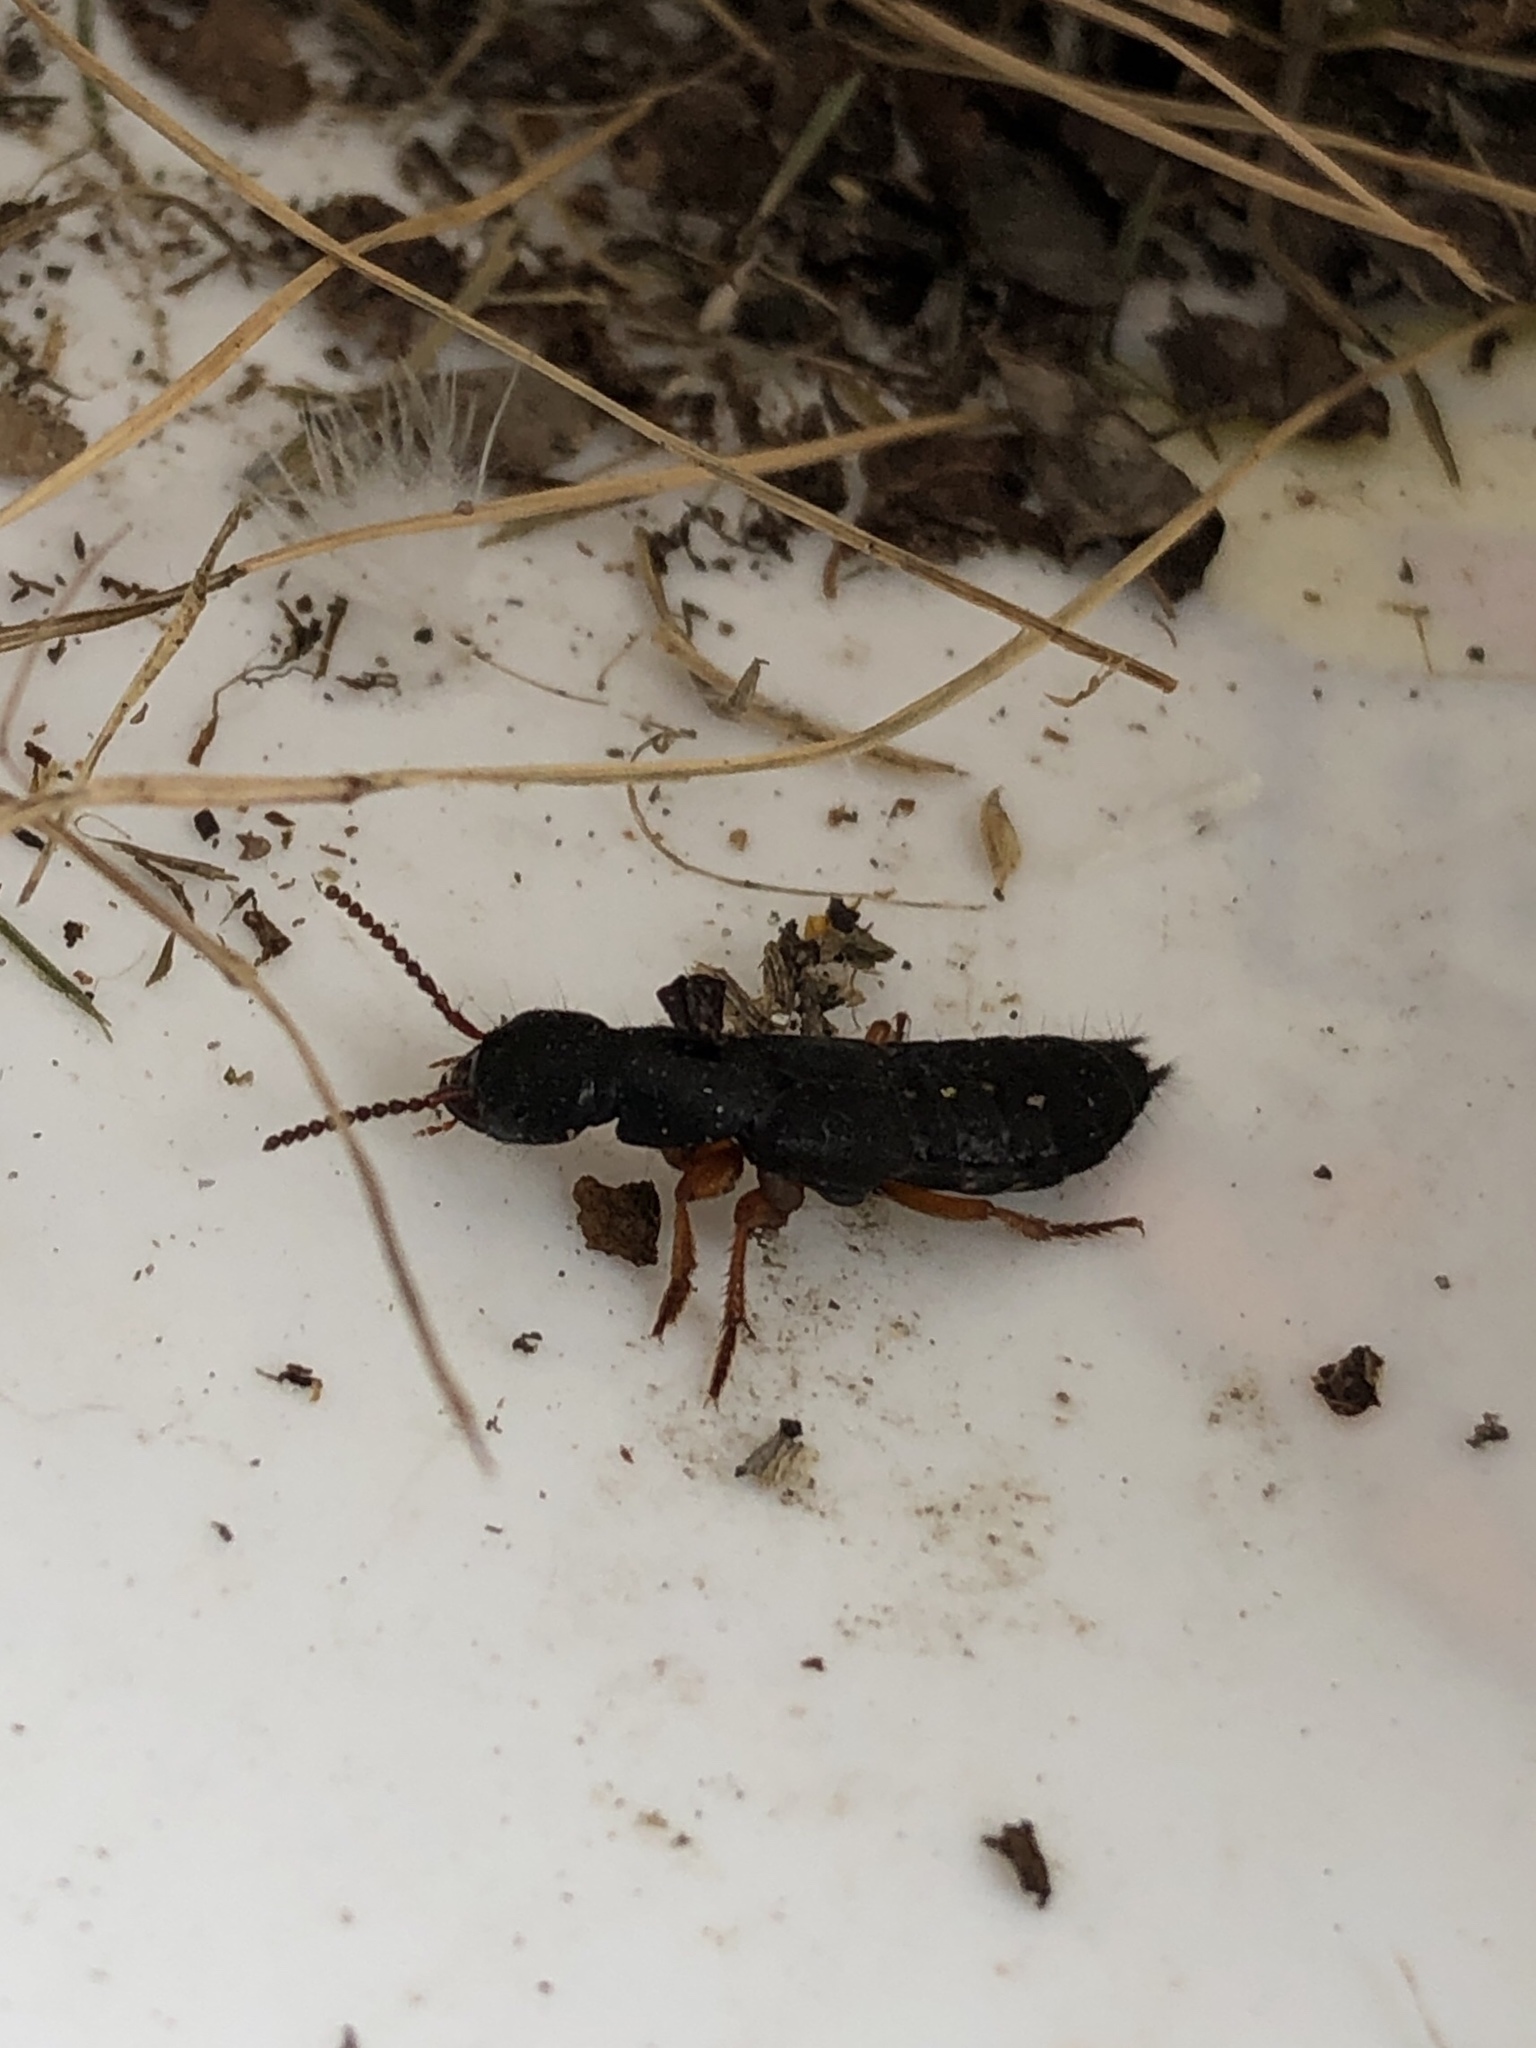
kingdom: Animalia
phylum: Arthropoda
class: Insecta
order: Coleoptera
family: Staphylinidae
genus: Dinothenarus
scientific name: Dinothenarus badipes
